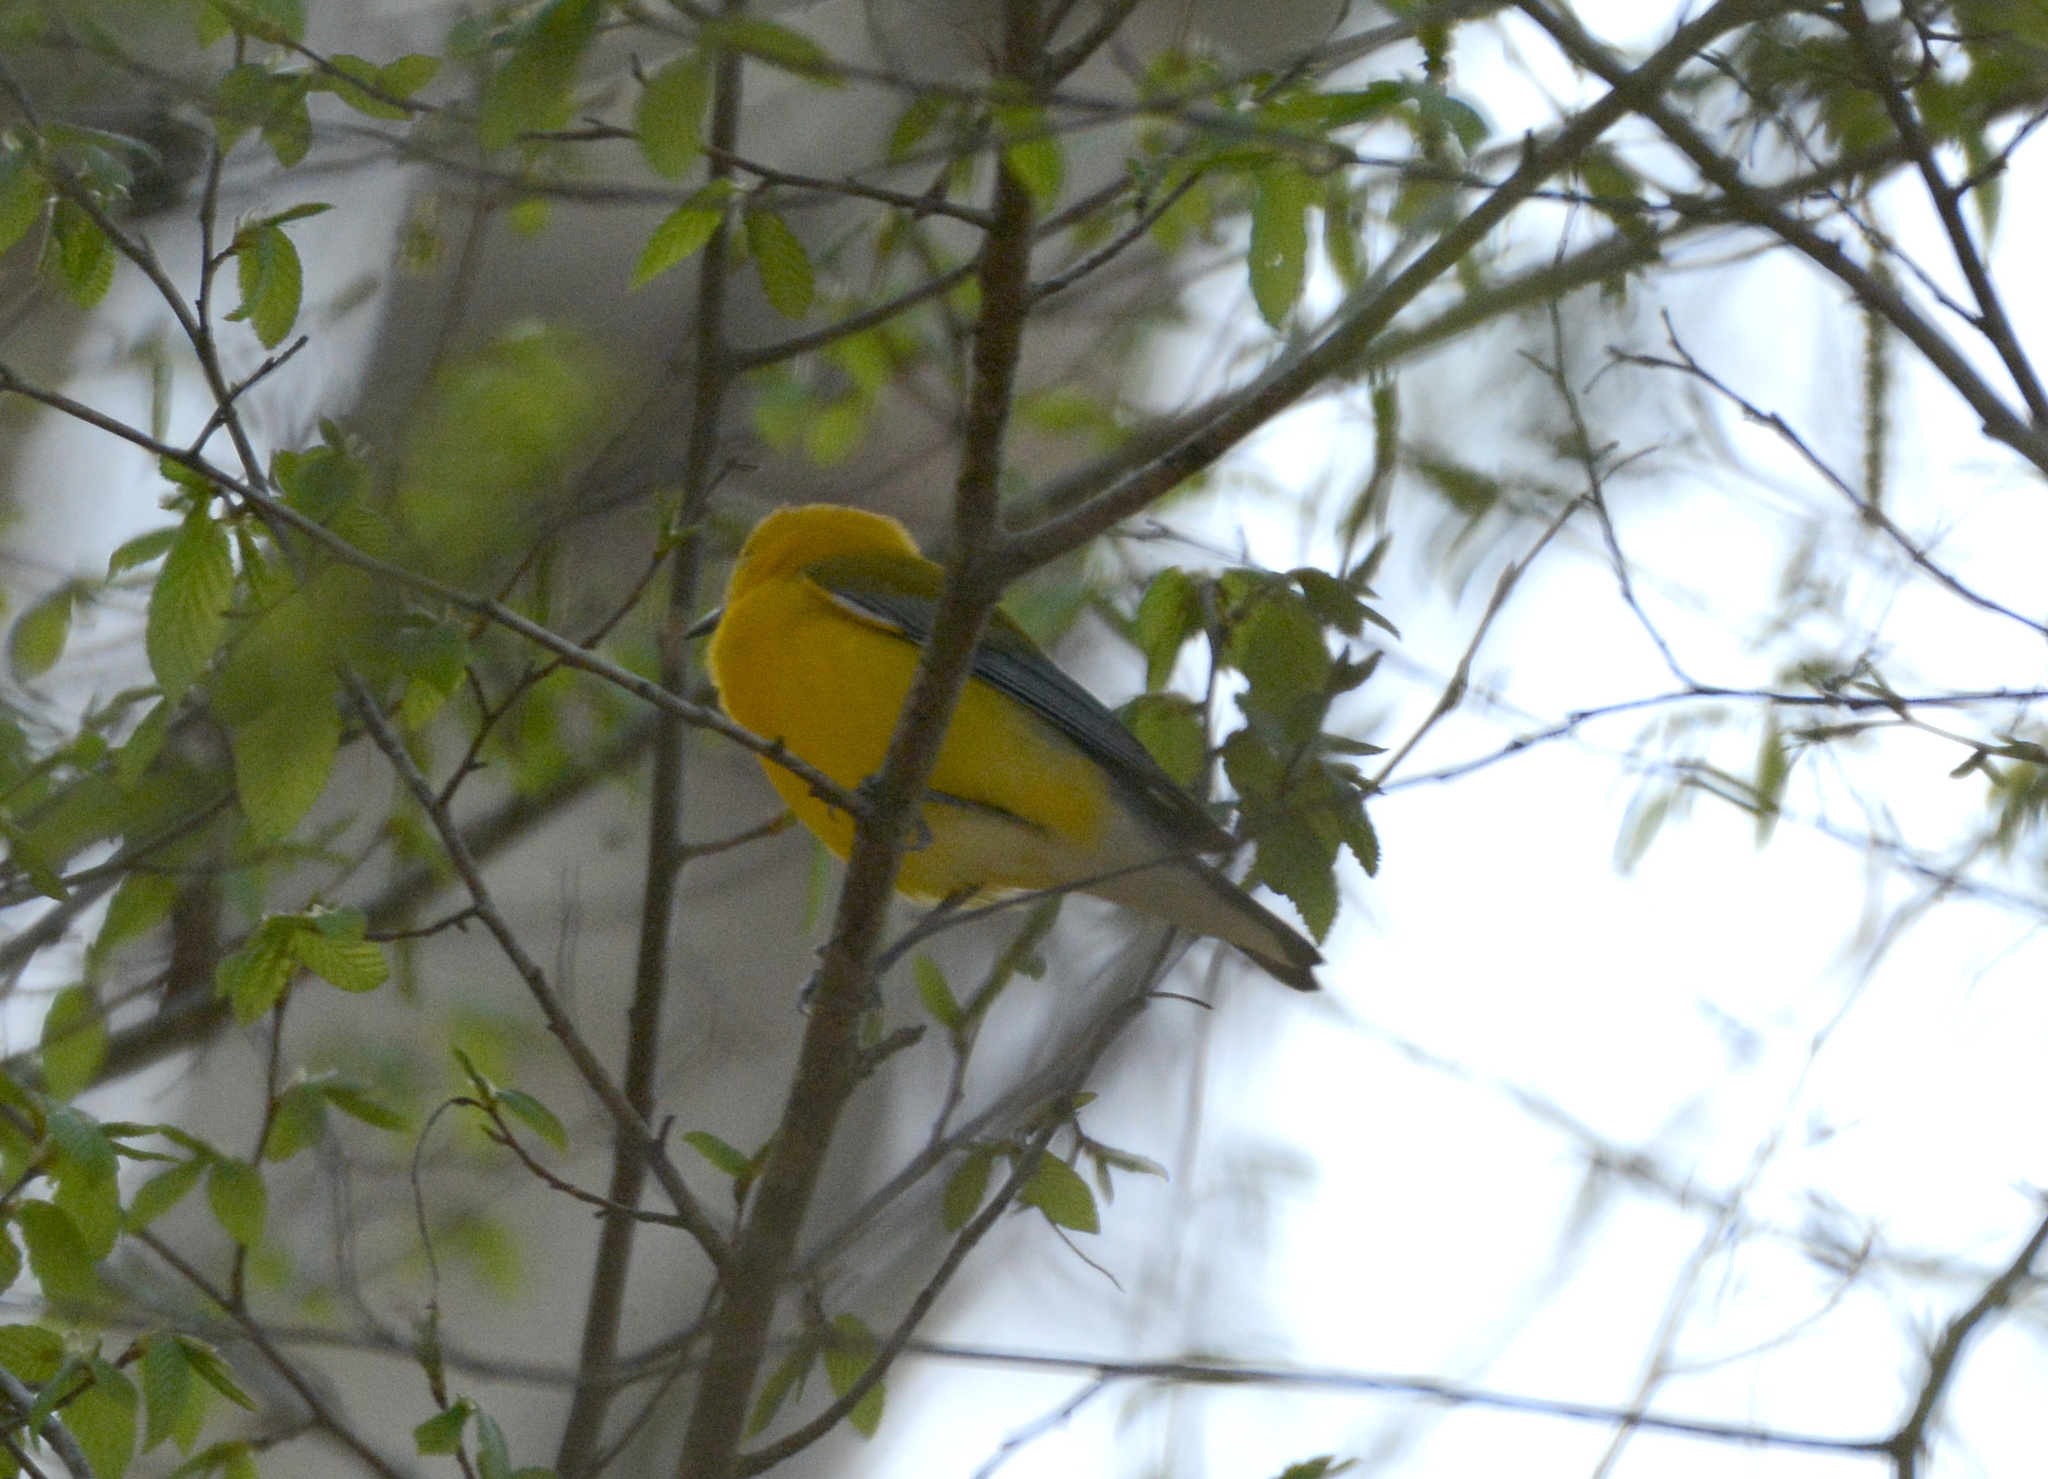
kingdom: Animalia
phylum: Chordata
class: Aves
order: Passeriformes
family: Parulidae
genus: Protonotaria
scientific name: Protonotaria citrea
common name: Prothonotary warbler
